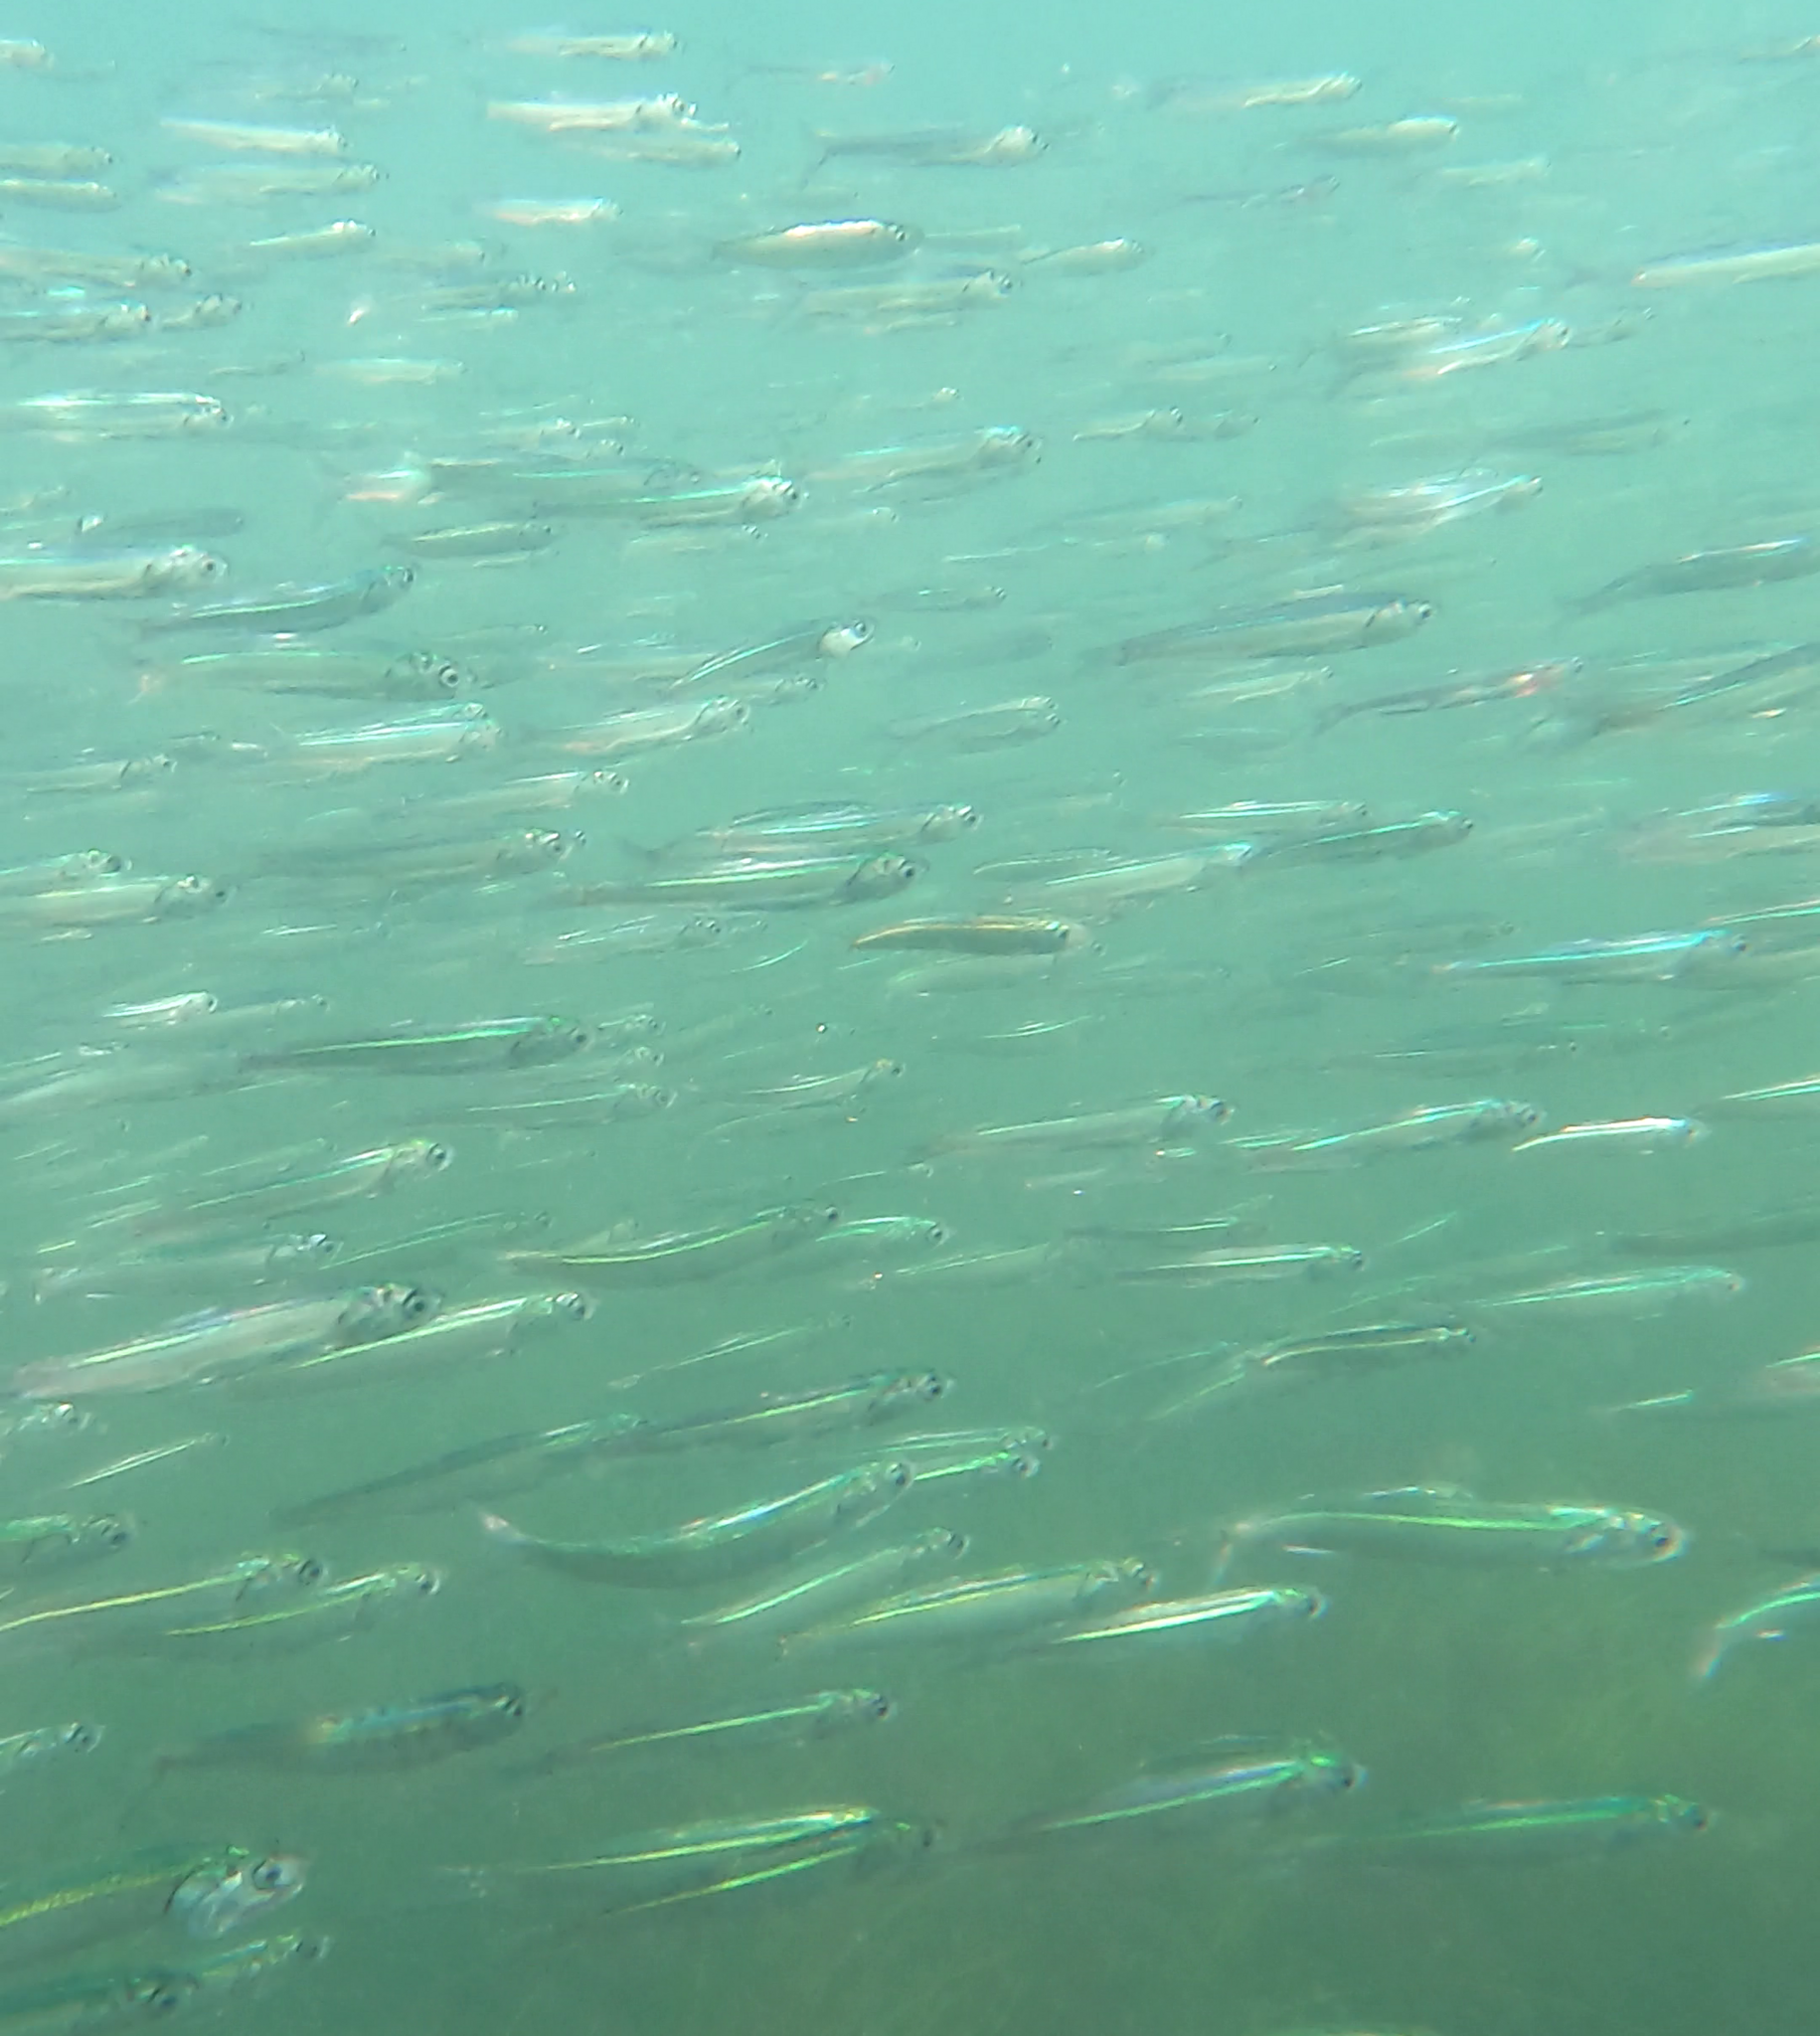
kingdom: Animalia
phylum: Chordata
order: Clupeiformes
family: Engraulidae
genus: Engraulis
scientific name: Engraulis ringens
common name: Peruvian anchovy
